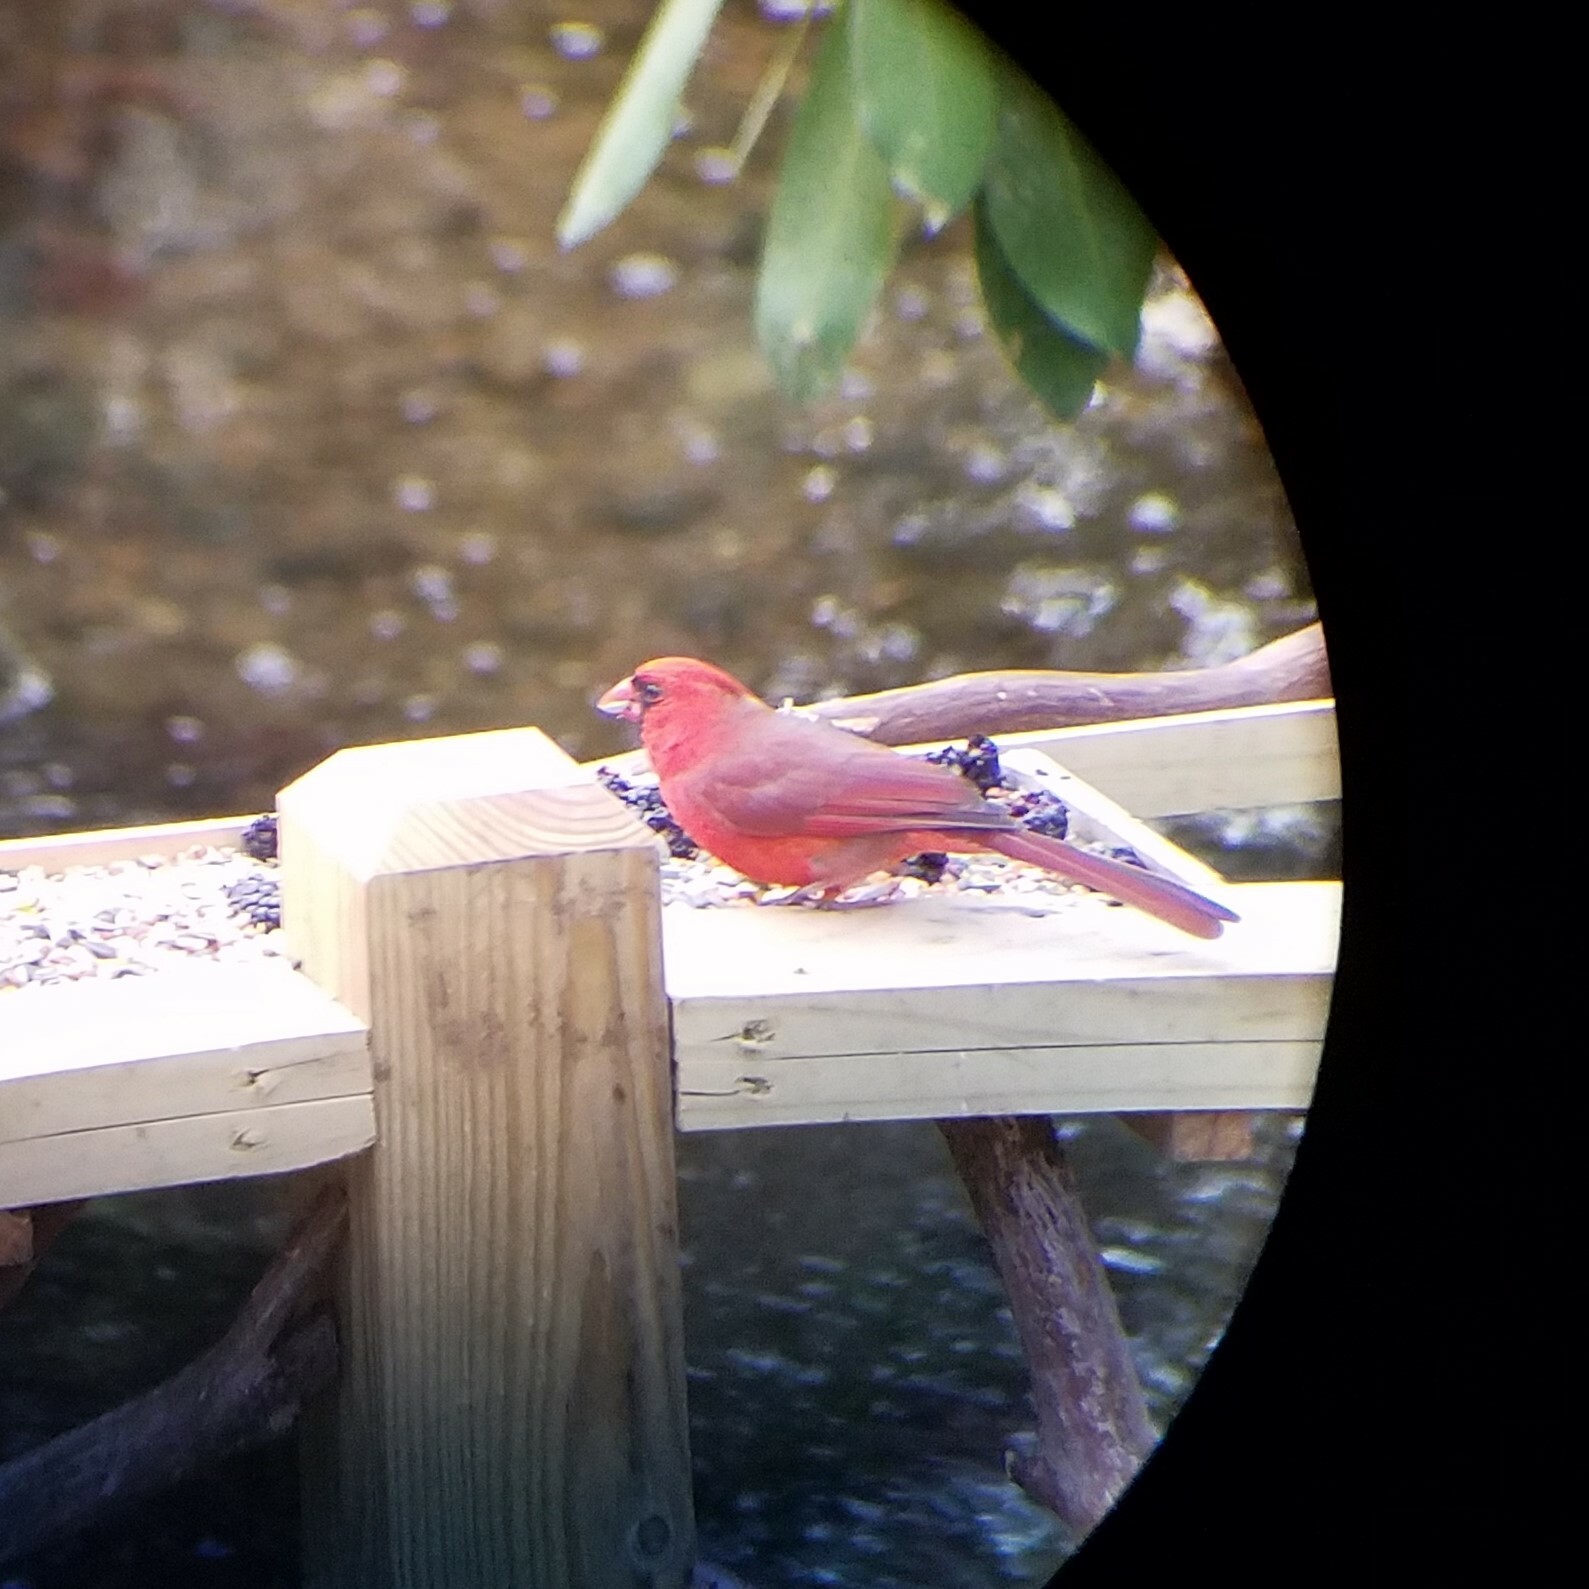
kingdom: Animalia
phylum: Chordata
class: Aves
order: Passeriformes
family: Cardinalidae
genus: Cardinalis
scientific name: Cardinalis cardinalis
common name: Northern cardinal
